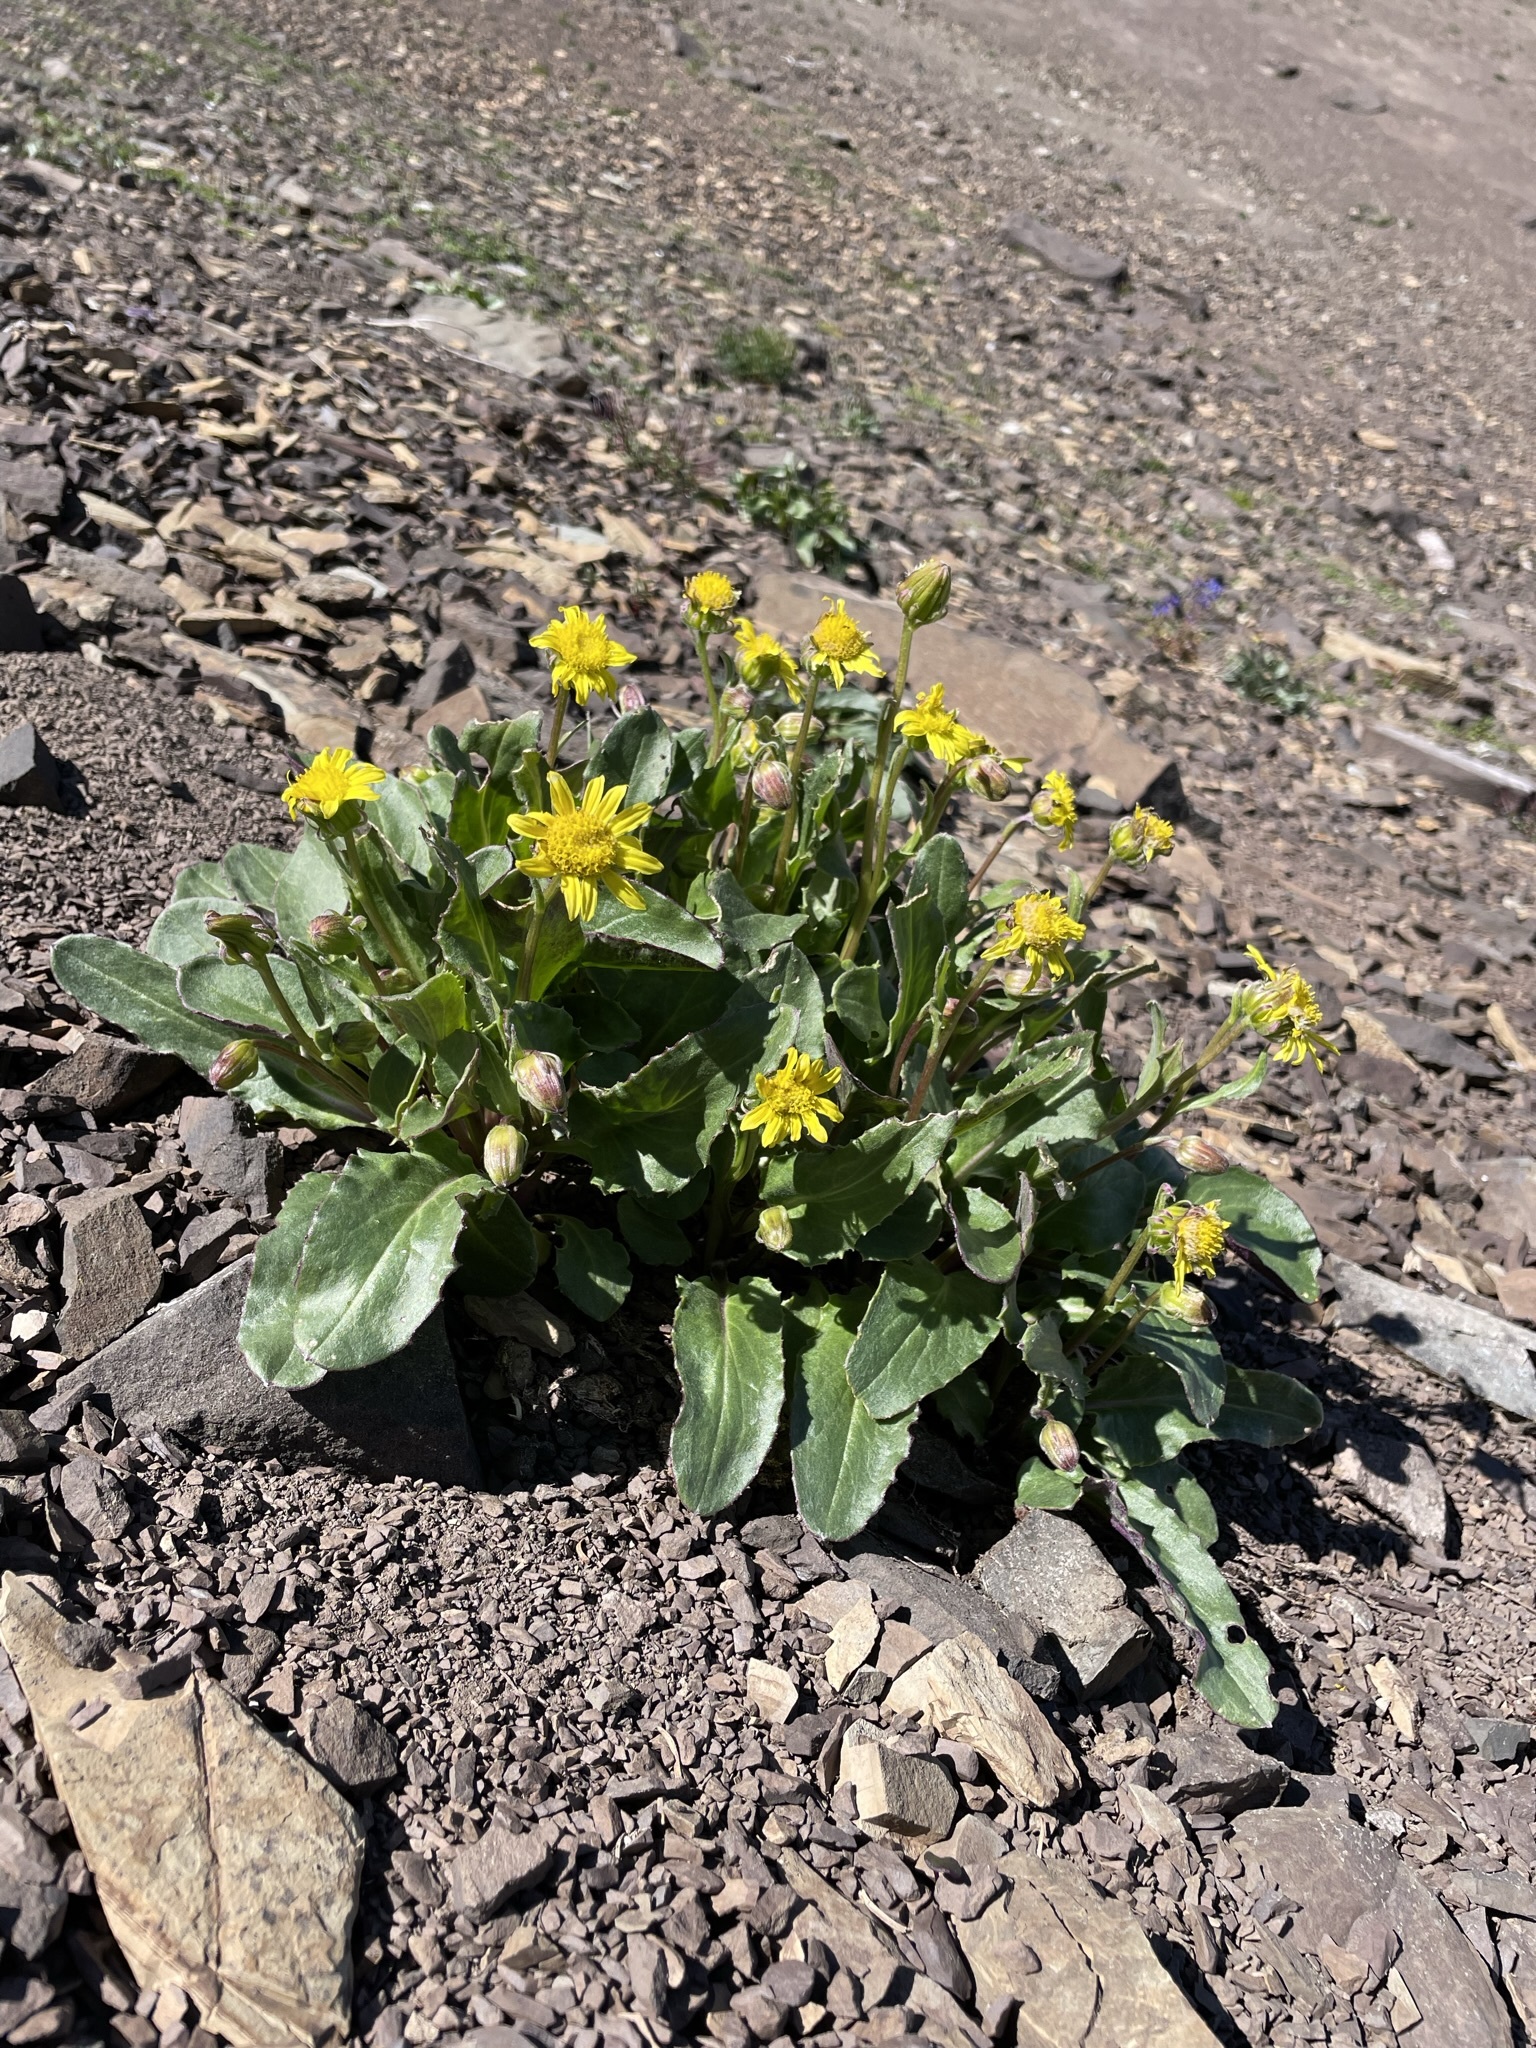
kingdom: Plantae
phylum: Tracheophyta
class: Magnoliopsida
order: Asterales
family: Asteraceae
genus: Senecio
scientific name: Senecio neowebsteri
